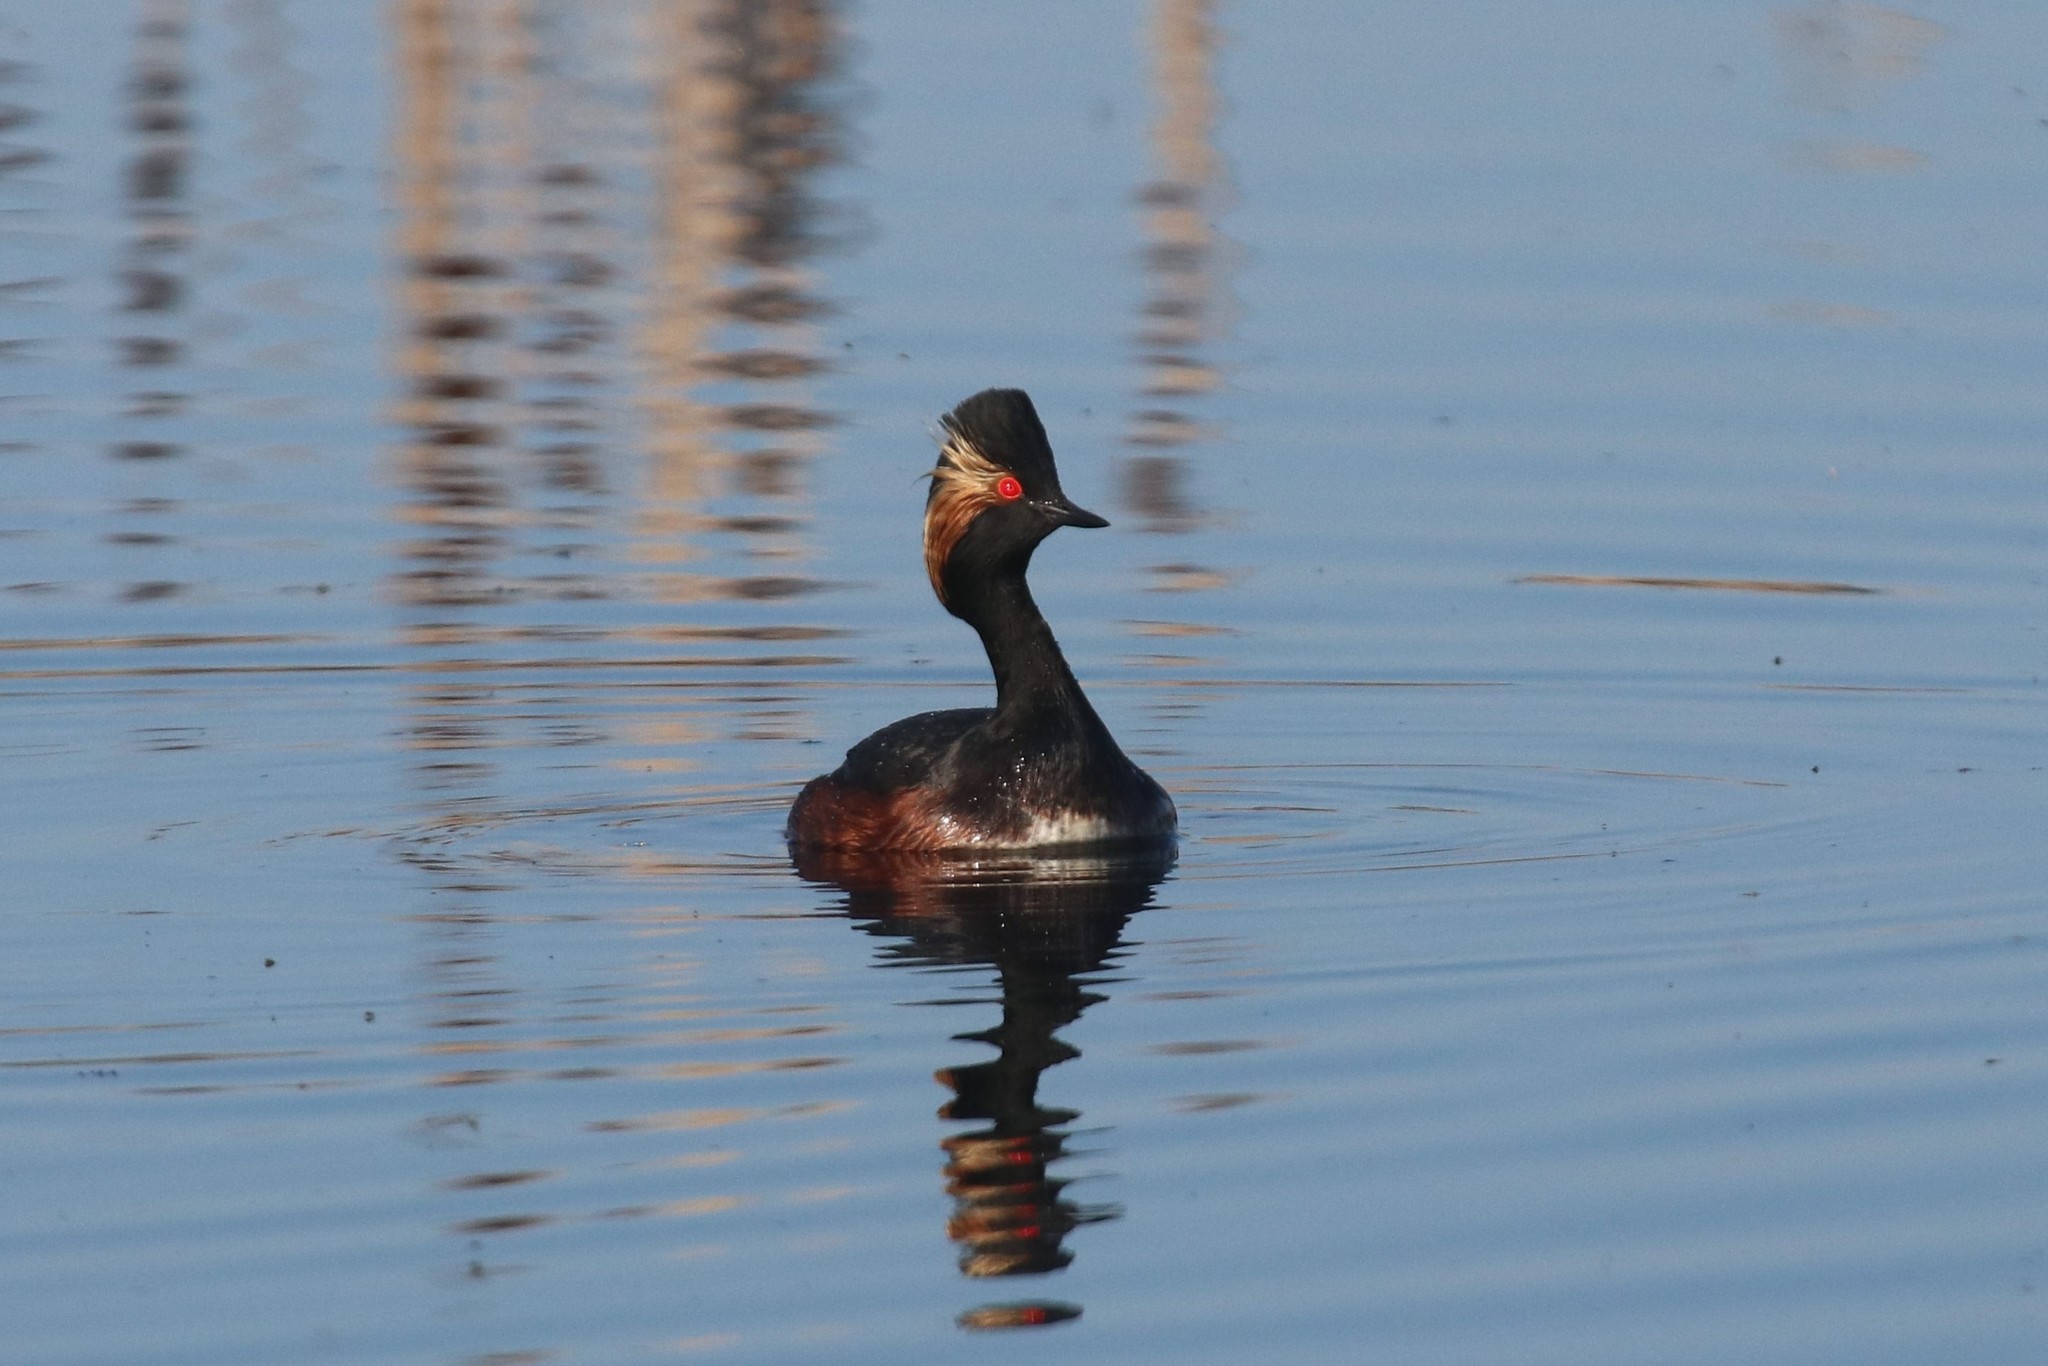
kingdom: Animalia
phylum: Chordata
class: Aves
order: Podicipediformes
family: Podicipedidae
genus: Podiceps
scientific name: Podiceps nigricollis
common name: Black-necked grebe
